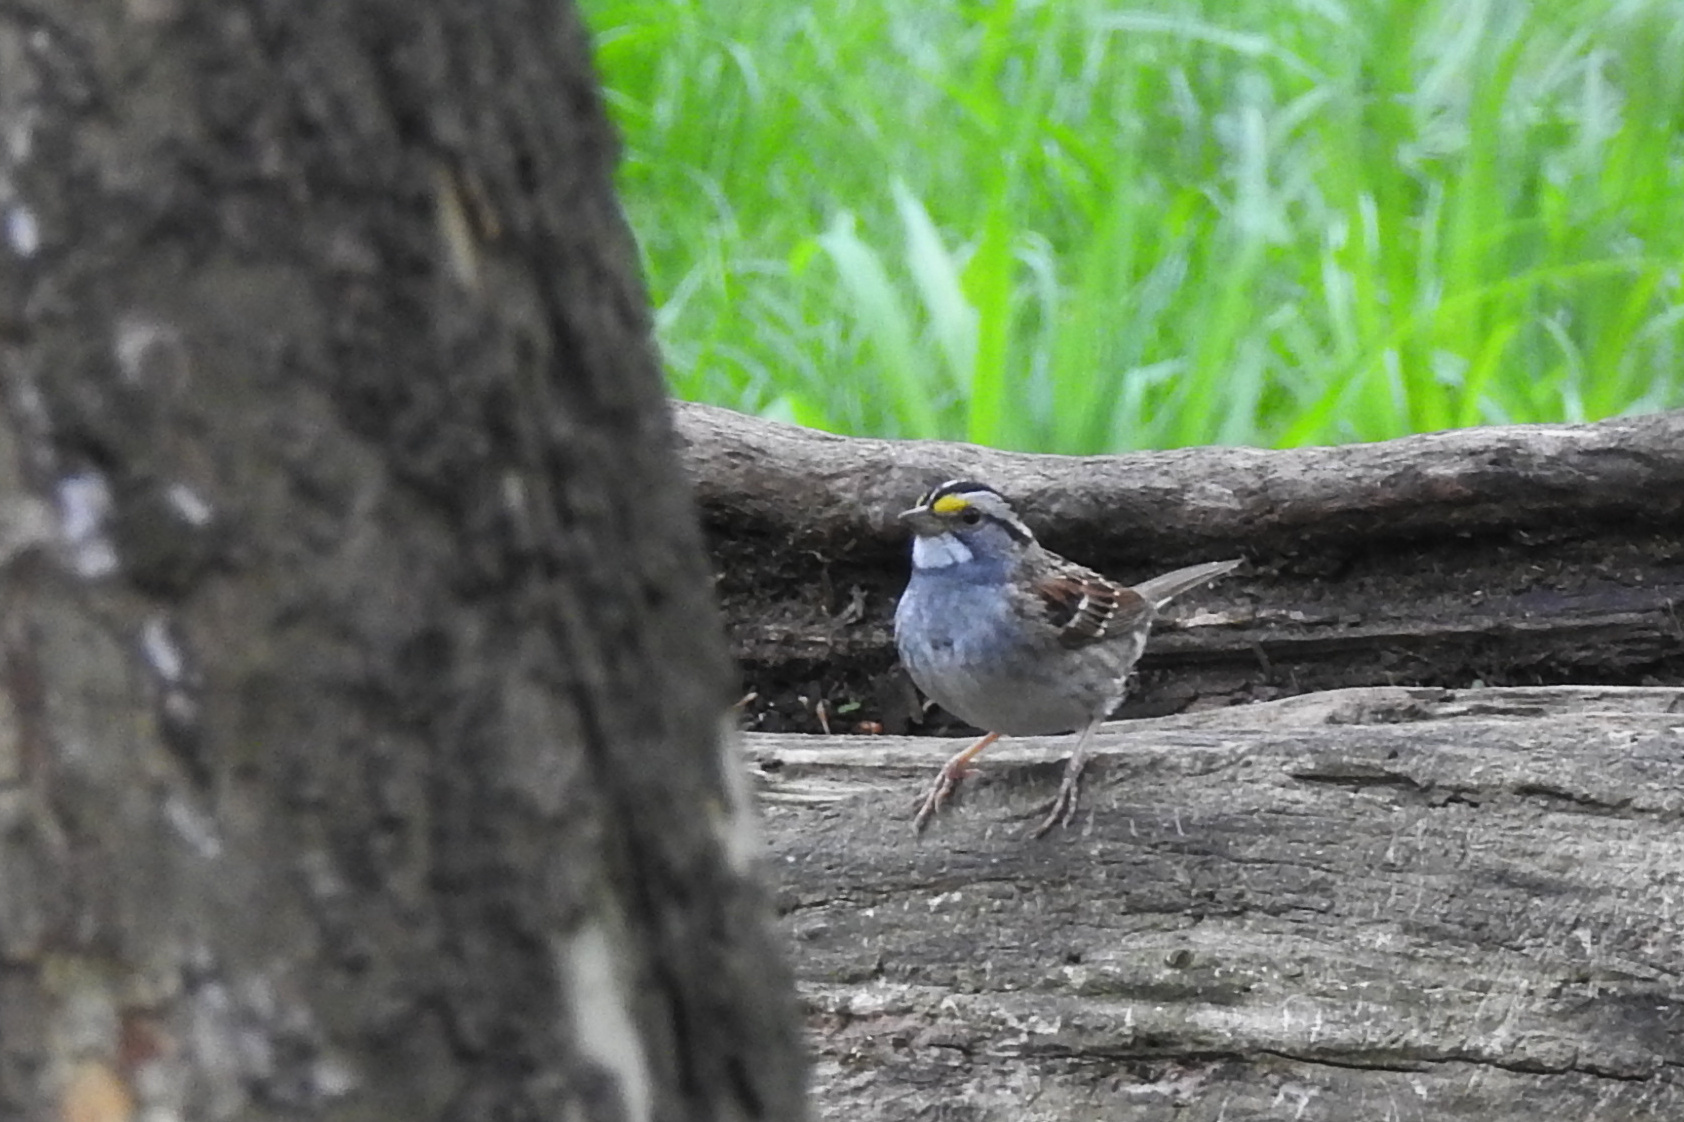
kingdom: Animalia
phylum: Chordata
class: Aves
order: Passeriformes
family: Passerellidae
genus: Zonotrichia
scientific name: Zonotrichia albicollis
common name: White-throated sparrow
